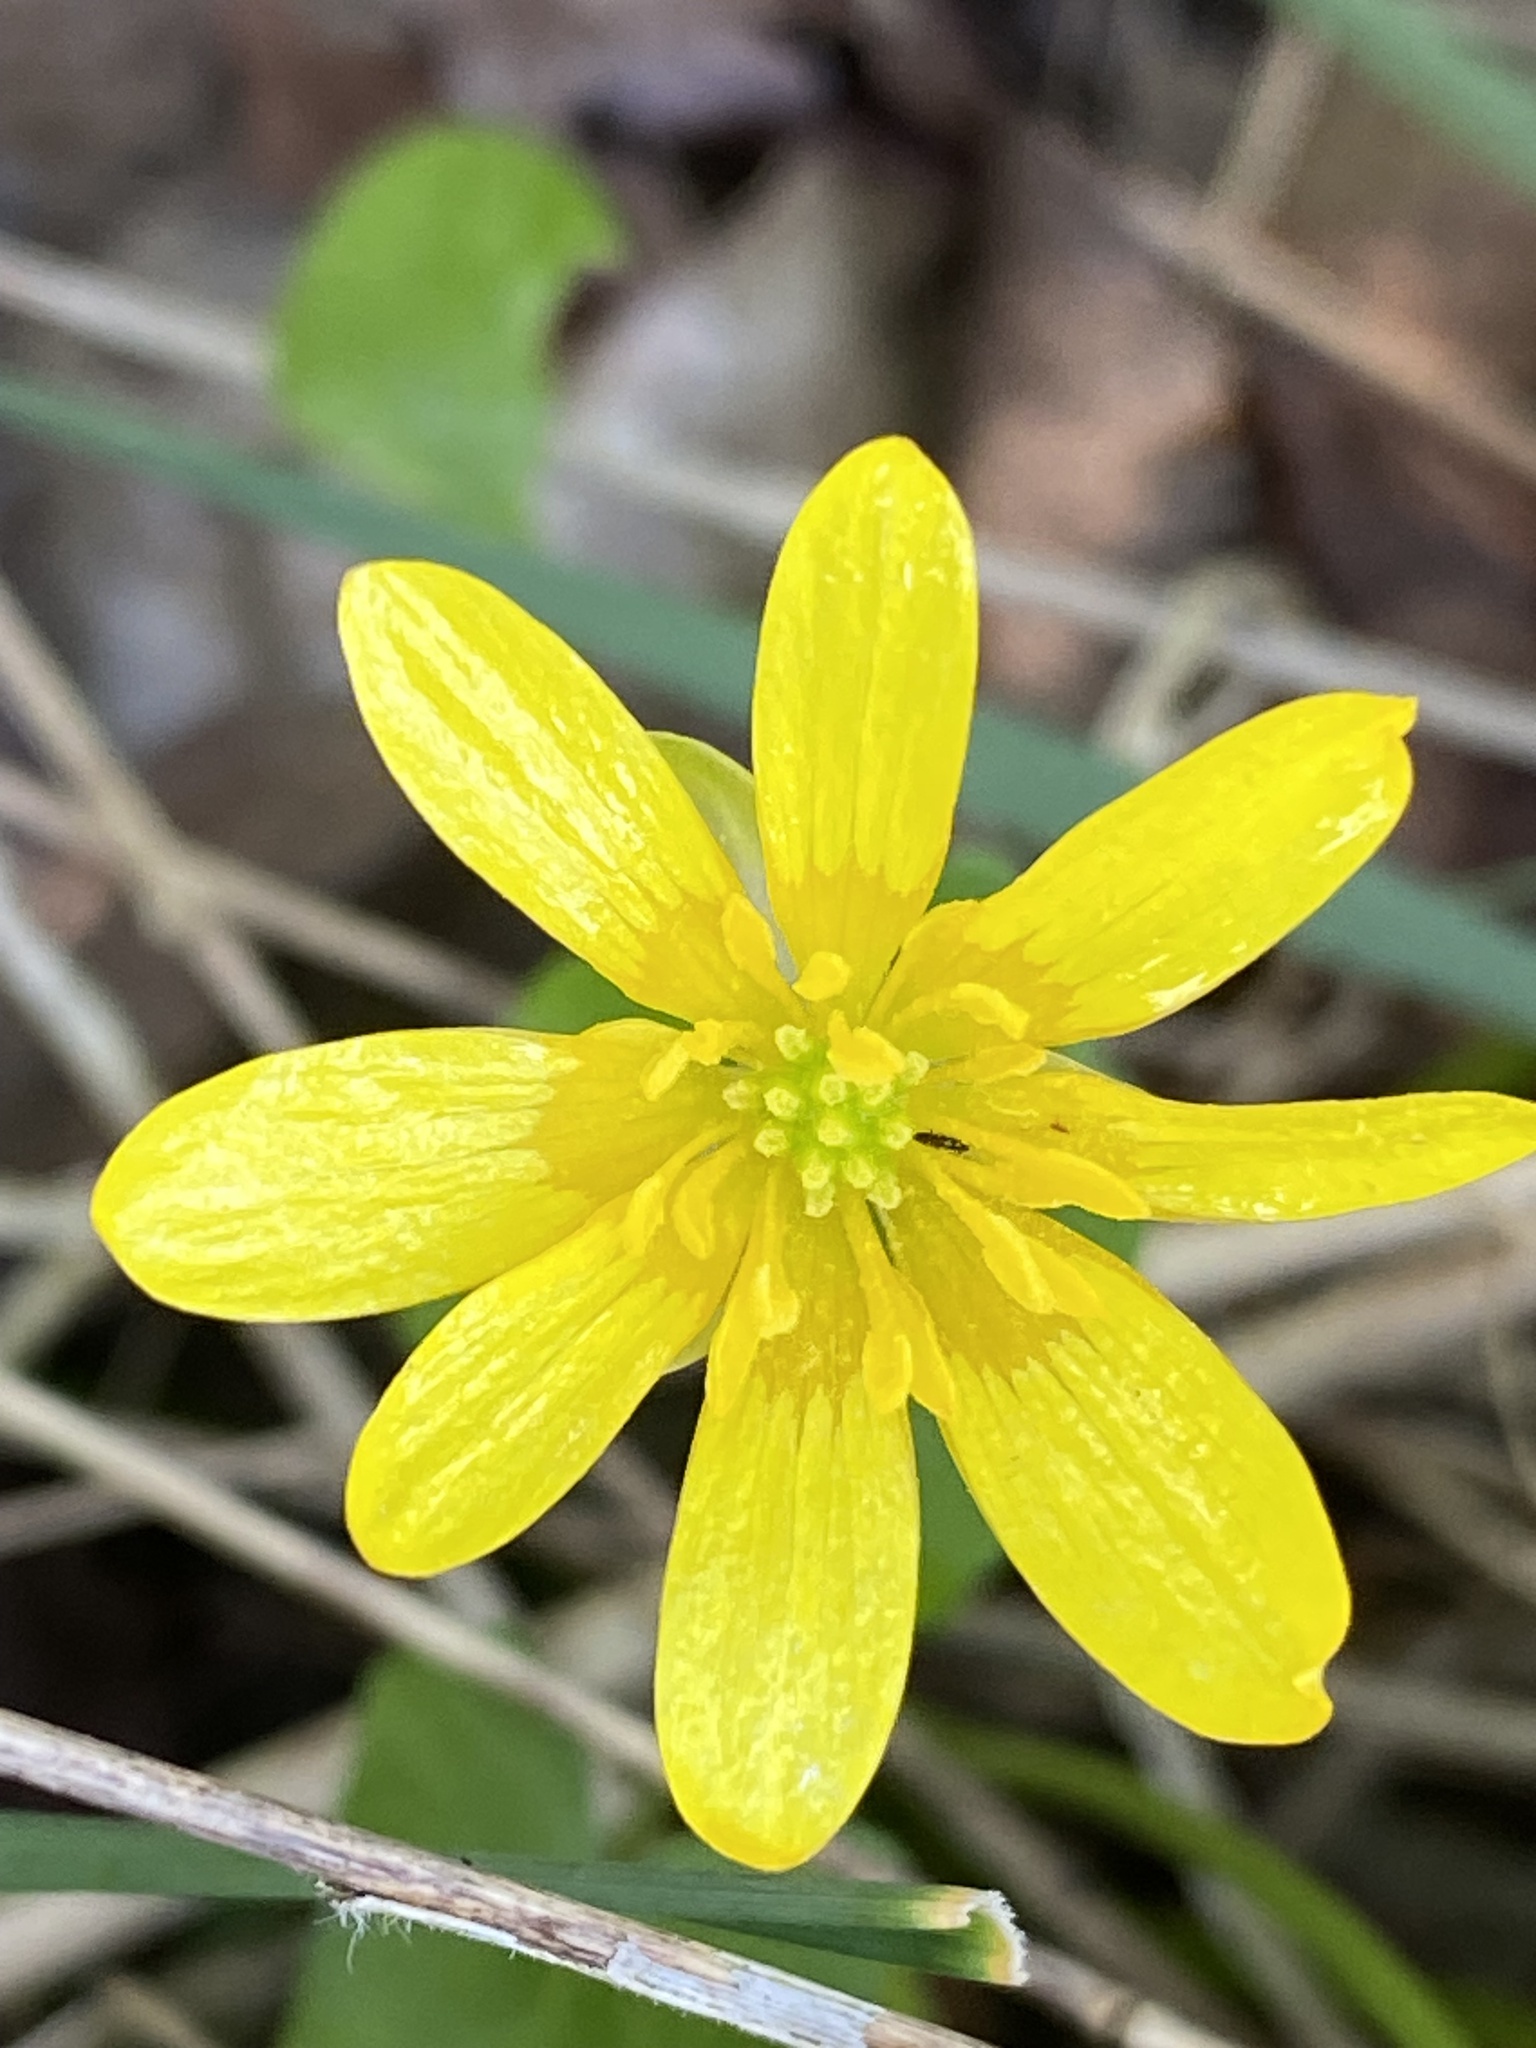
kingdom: Plantae
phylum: Tracheophyta
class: Magnoliopsida
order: Ranunculales
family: Ranunculaceae
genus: Ficaria
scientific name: Ficaria verna
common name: Lesser celandine
